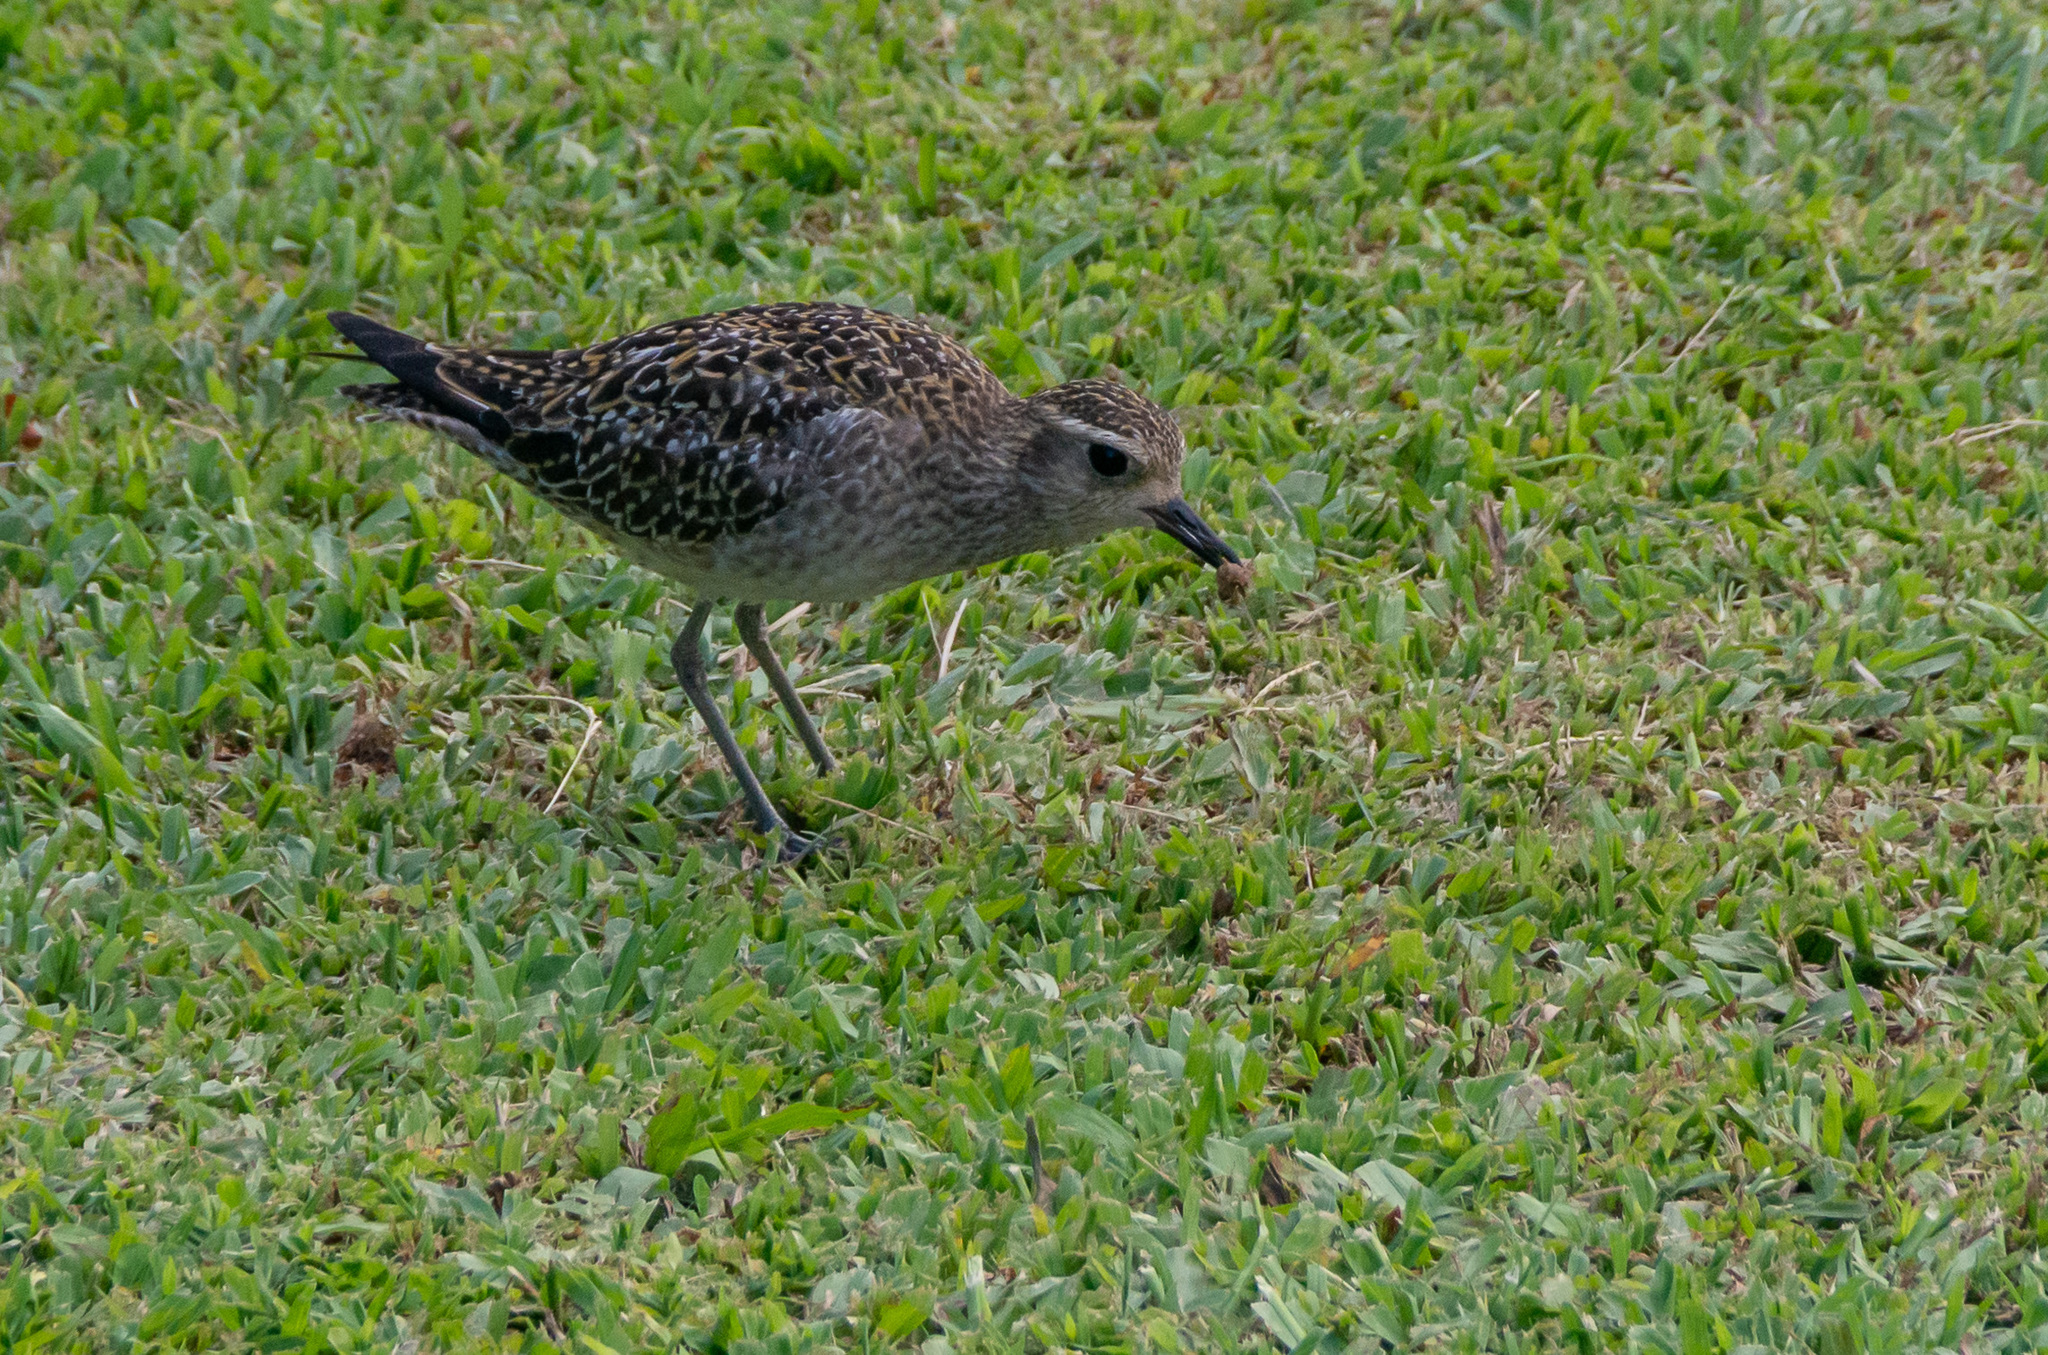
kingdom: Animalia
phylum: Chordata
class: Aves
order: Charadriiformes
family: Charadriidae
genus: Pluvialis
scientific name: Pluvialis fulva
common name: Pacific golden plover
